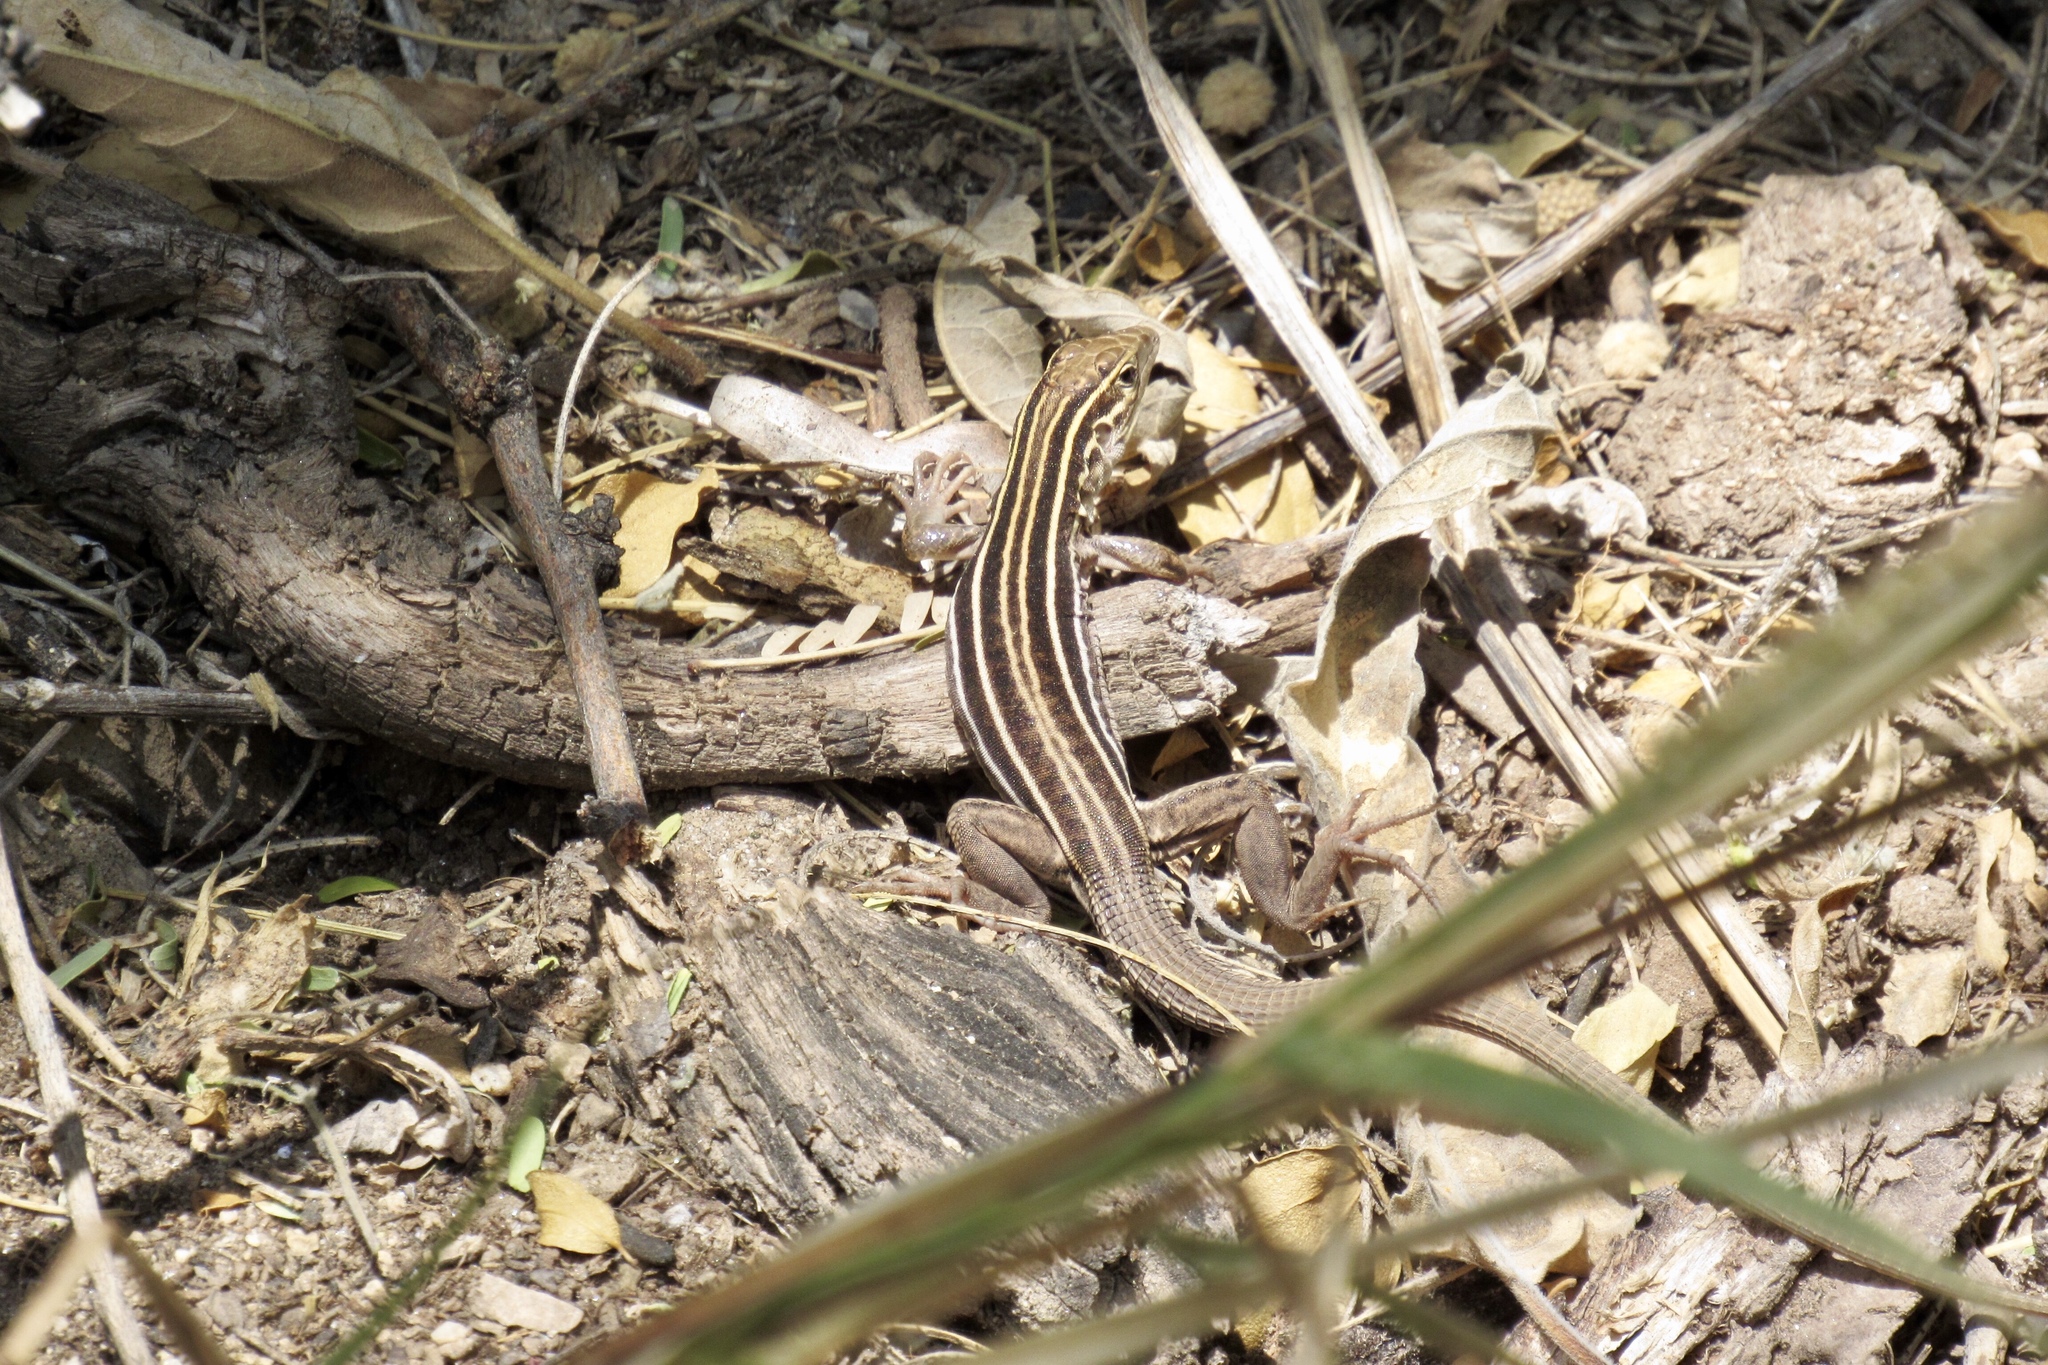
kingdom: Animalia
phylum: Chordata
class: Squamata
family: Teiidae
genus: Aspidoscelis
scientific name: Aspidoscelis stictogrammus
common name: Giant spotted whiptail
